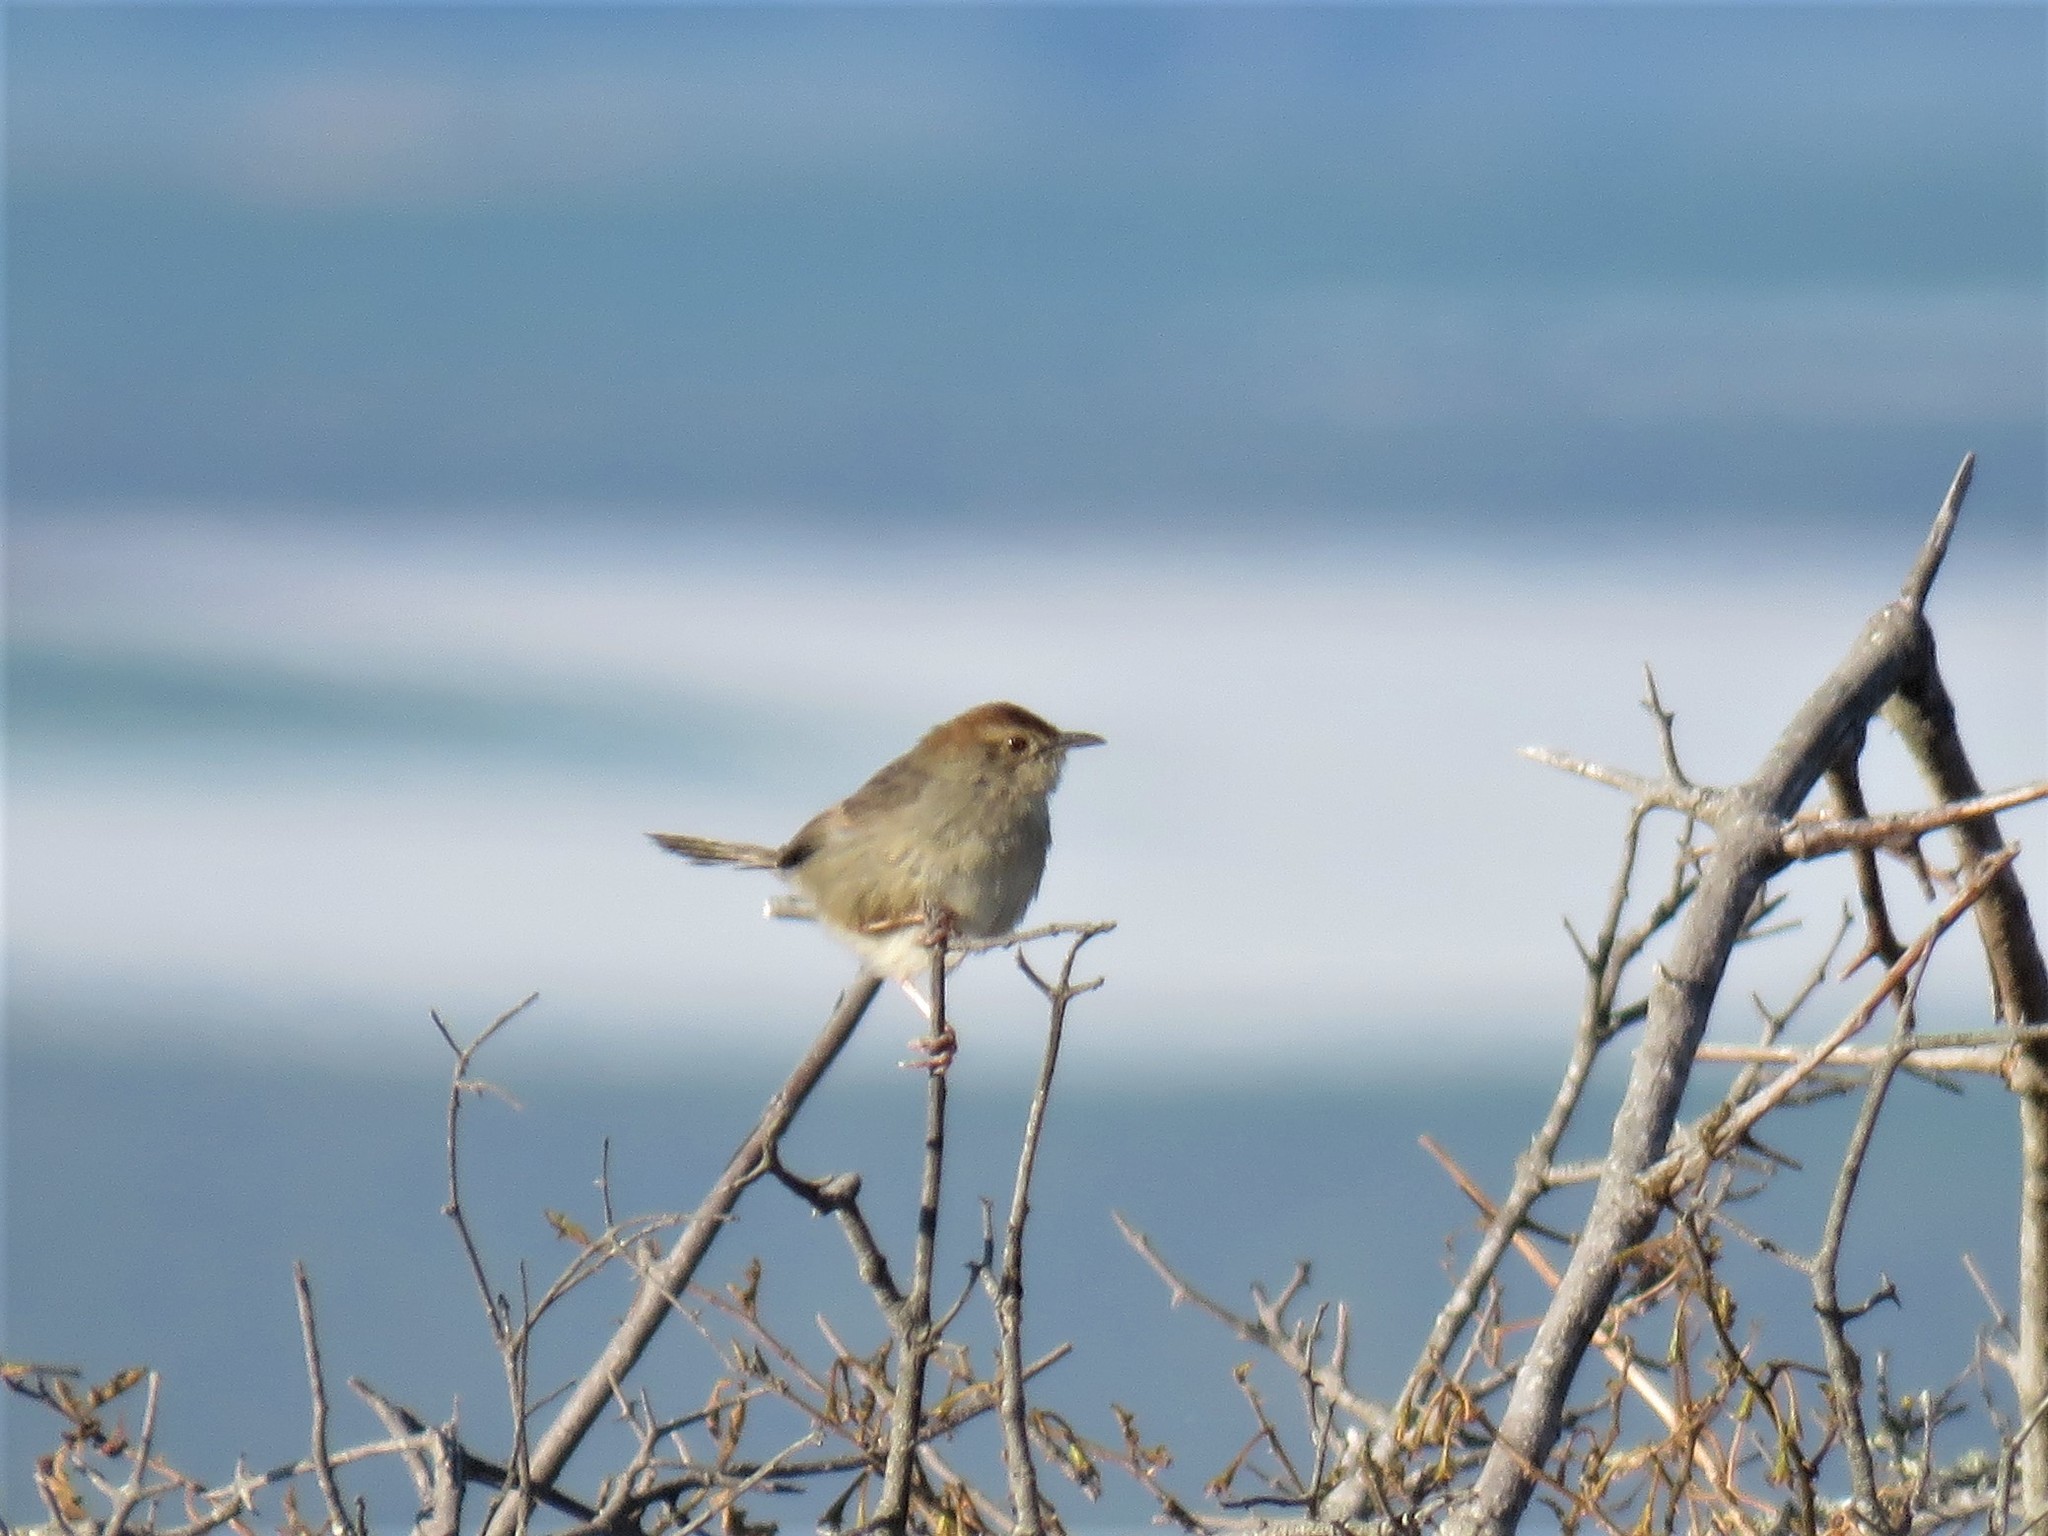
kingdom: Animalia
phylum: Chordata
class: Aves
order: Passeriformes
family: Cisticolidae
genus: Cisticola
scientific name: Cisticola aberrans
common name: Lazy cisticola
